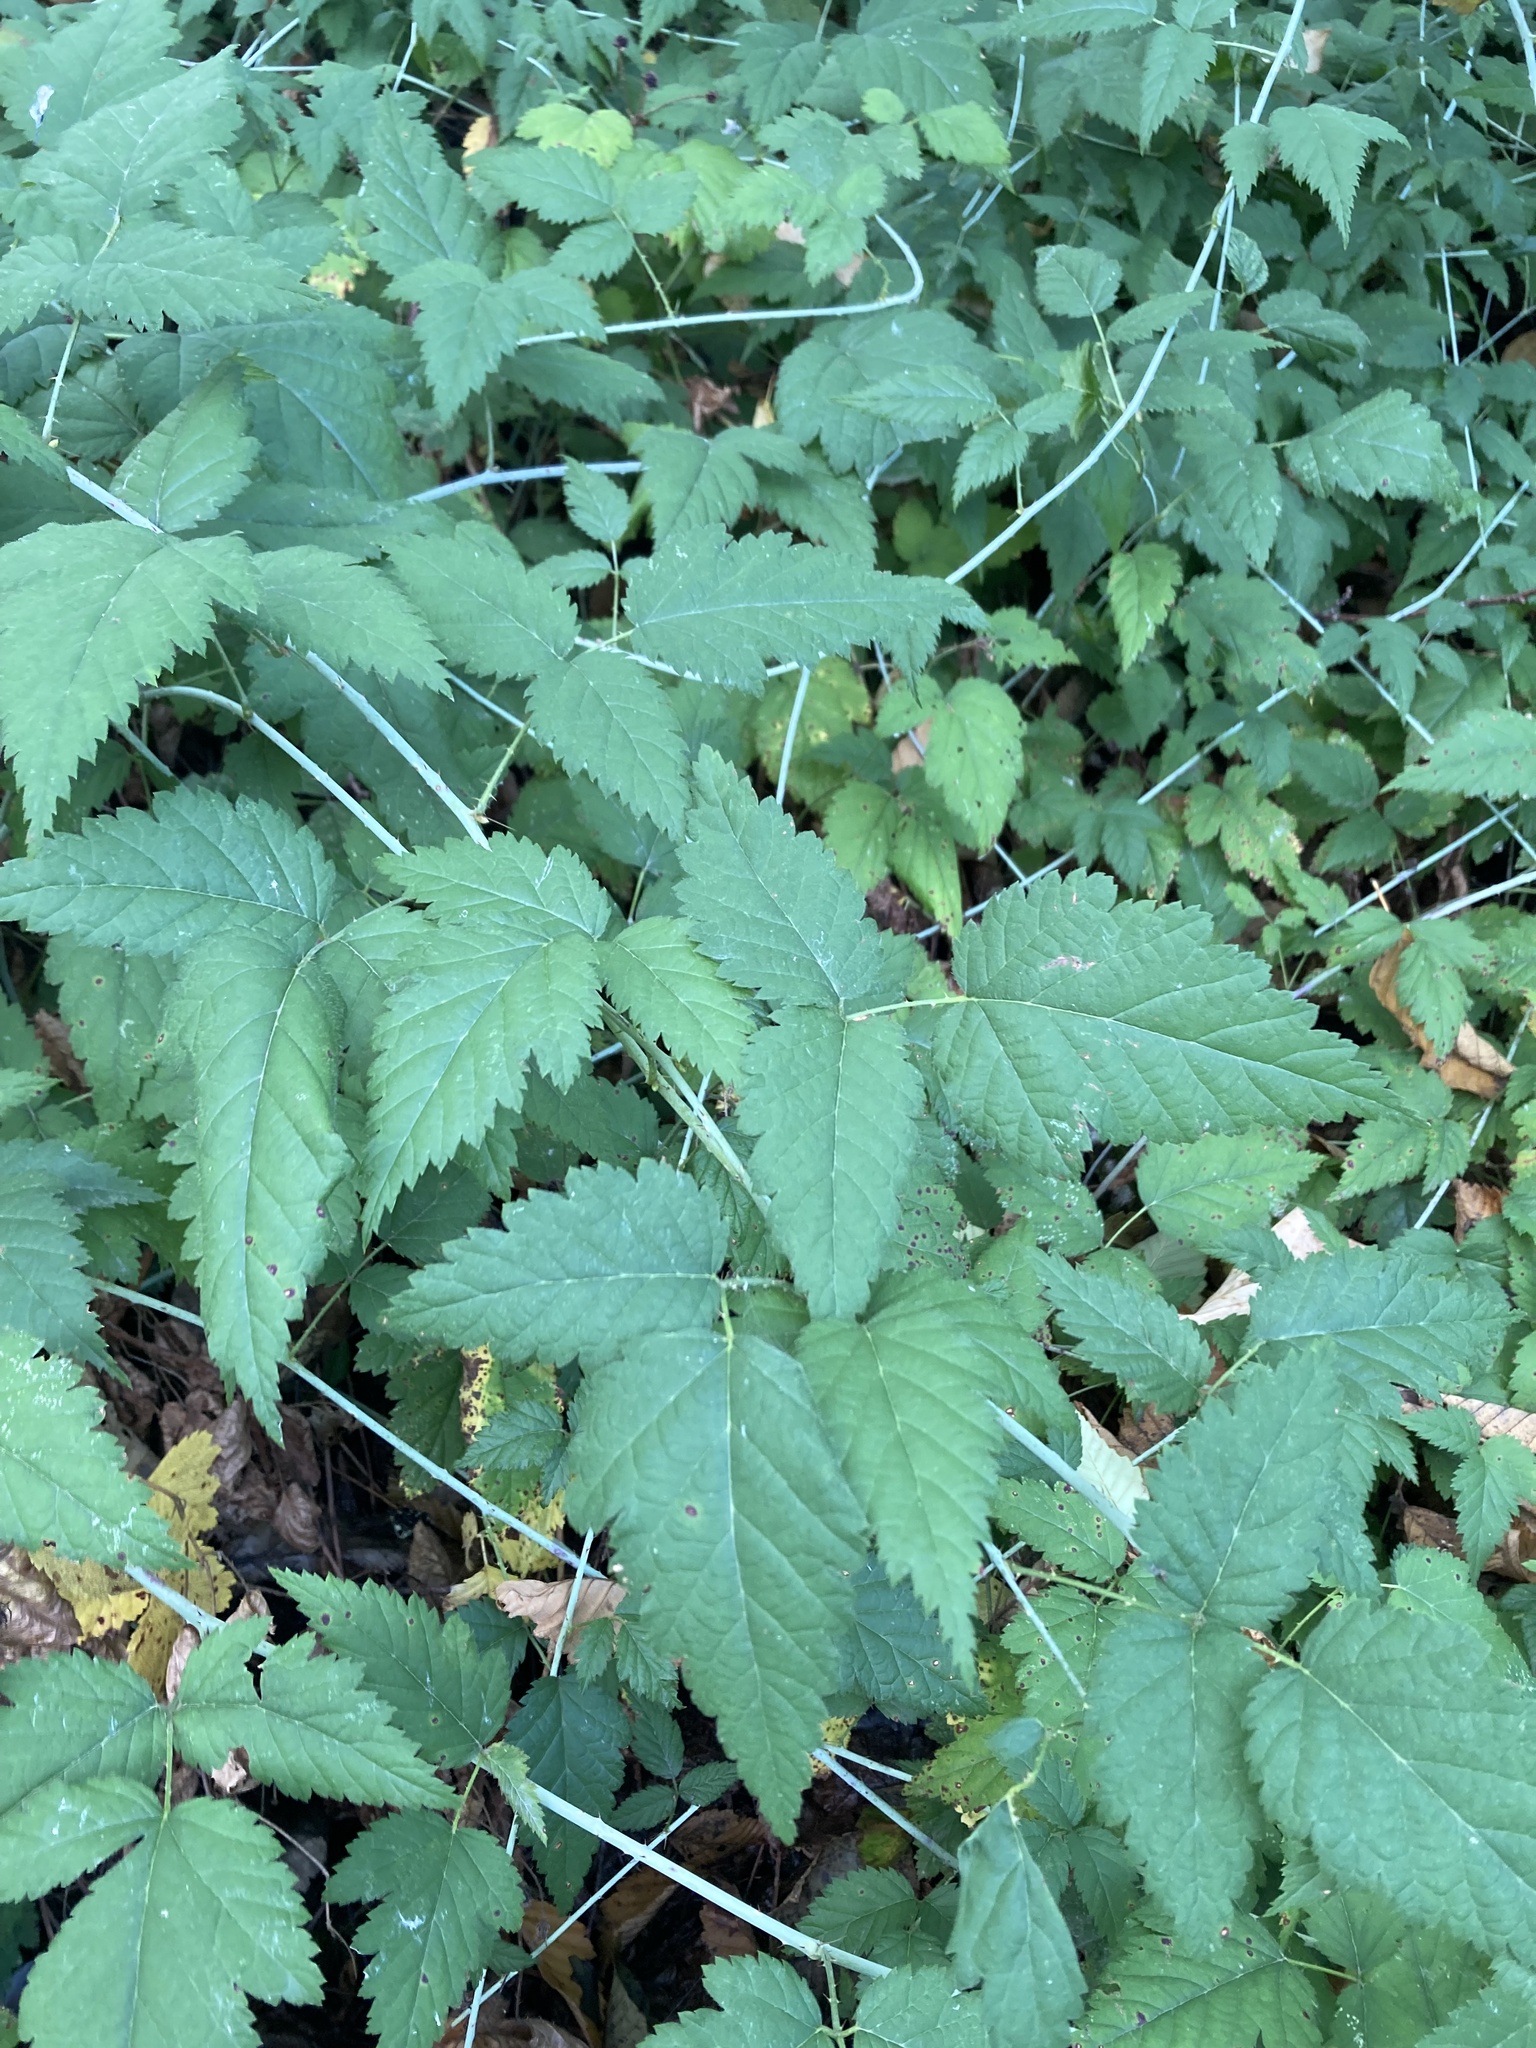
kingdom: Plantae
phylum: Tracheophyta
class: Magnoliopsida
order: Rosales
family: Rosaceae
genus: Rubus
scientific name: Rubus ursinus
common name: Pacific blackberry
